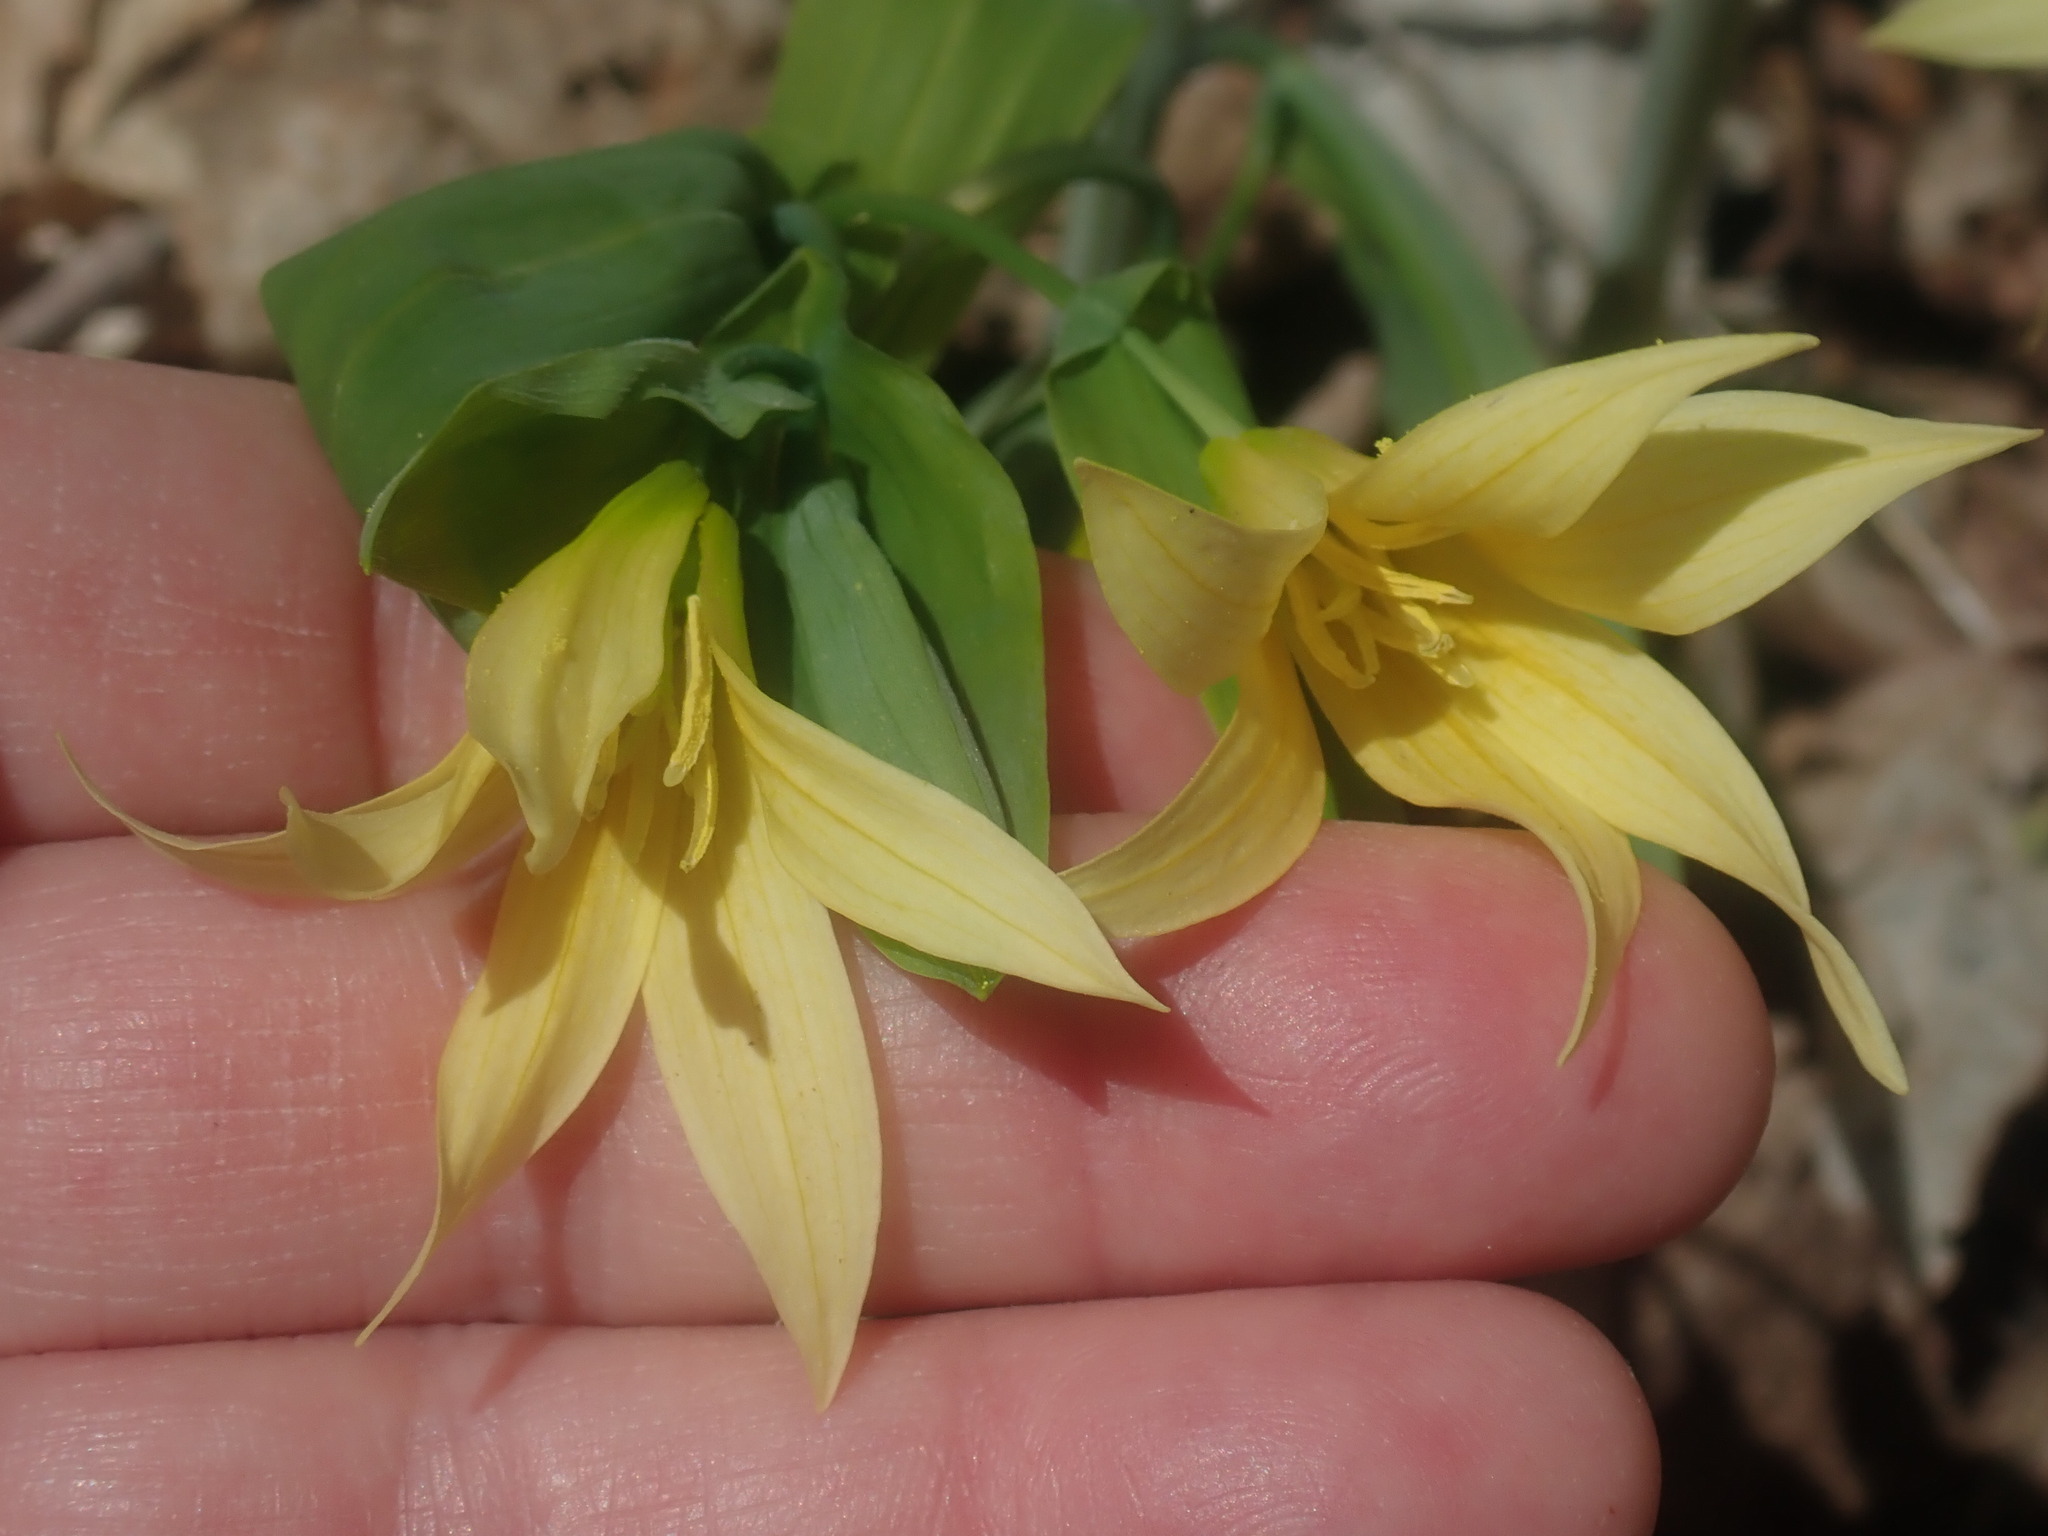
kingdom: Plantae
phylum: Tracheophyta
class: Liliopsida
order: Liliales
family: Colchicaceae
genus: Uvularia
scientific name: Uvularia grandiflora
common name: Bellwort
